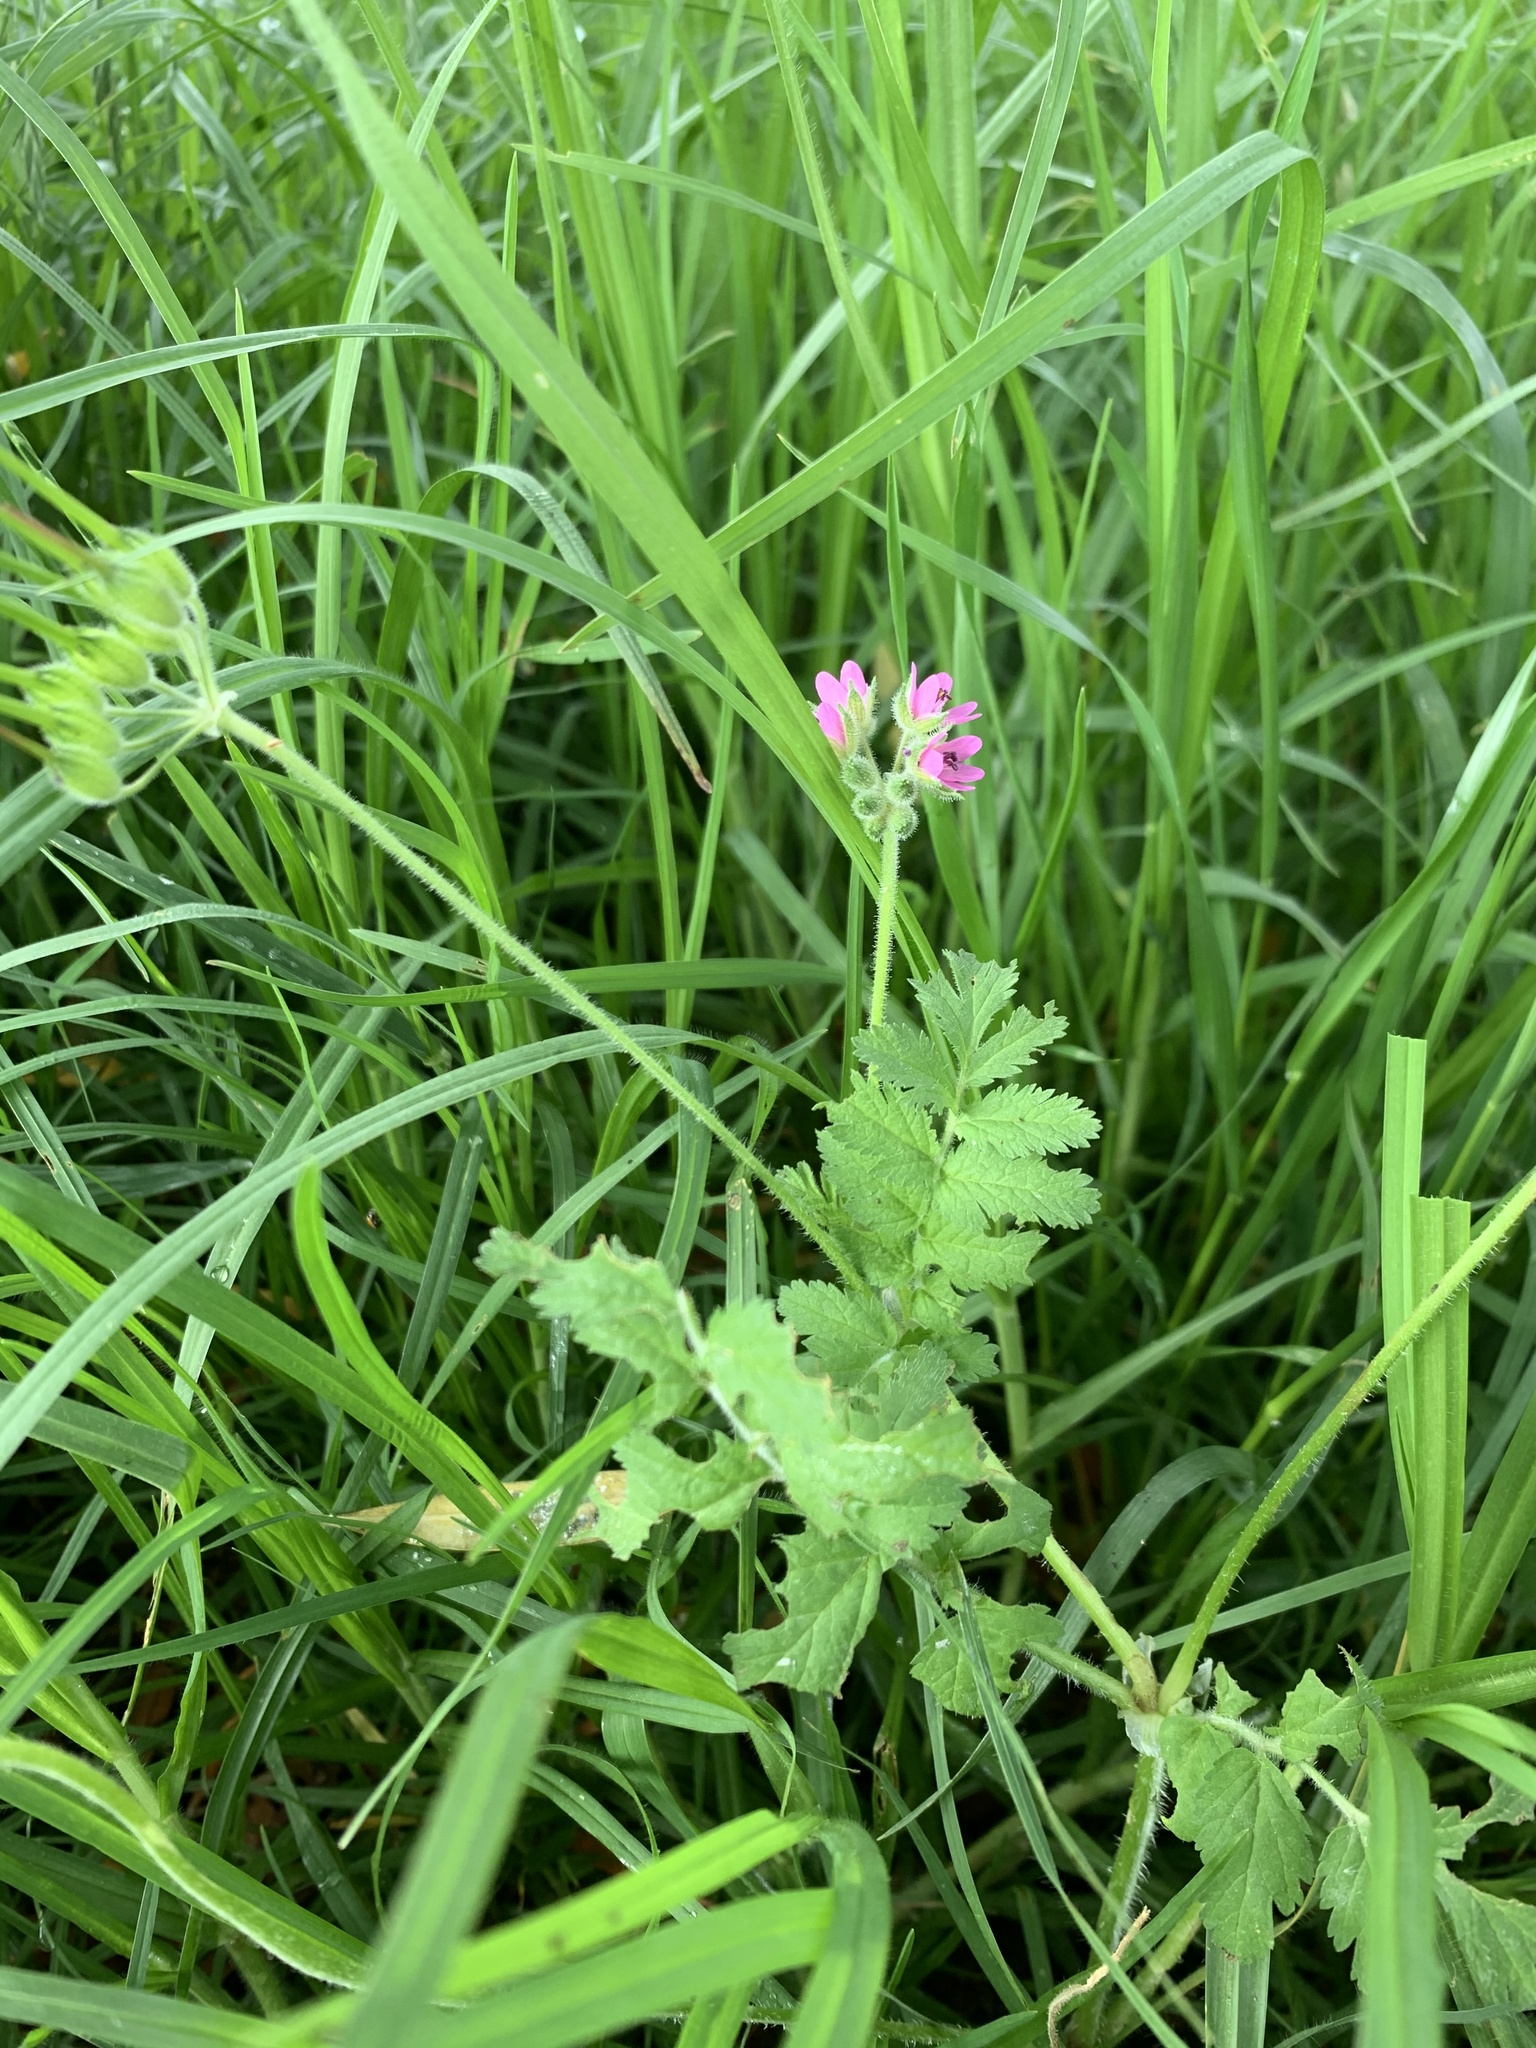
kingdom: Plantae
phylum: Tracheophyta
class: Magnoliopsida
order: Geraniales
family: Geraniaceae
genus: Erodium
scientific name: Erodium moschatum
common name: Musk stork's-bill
